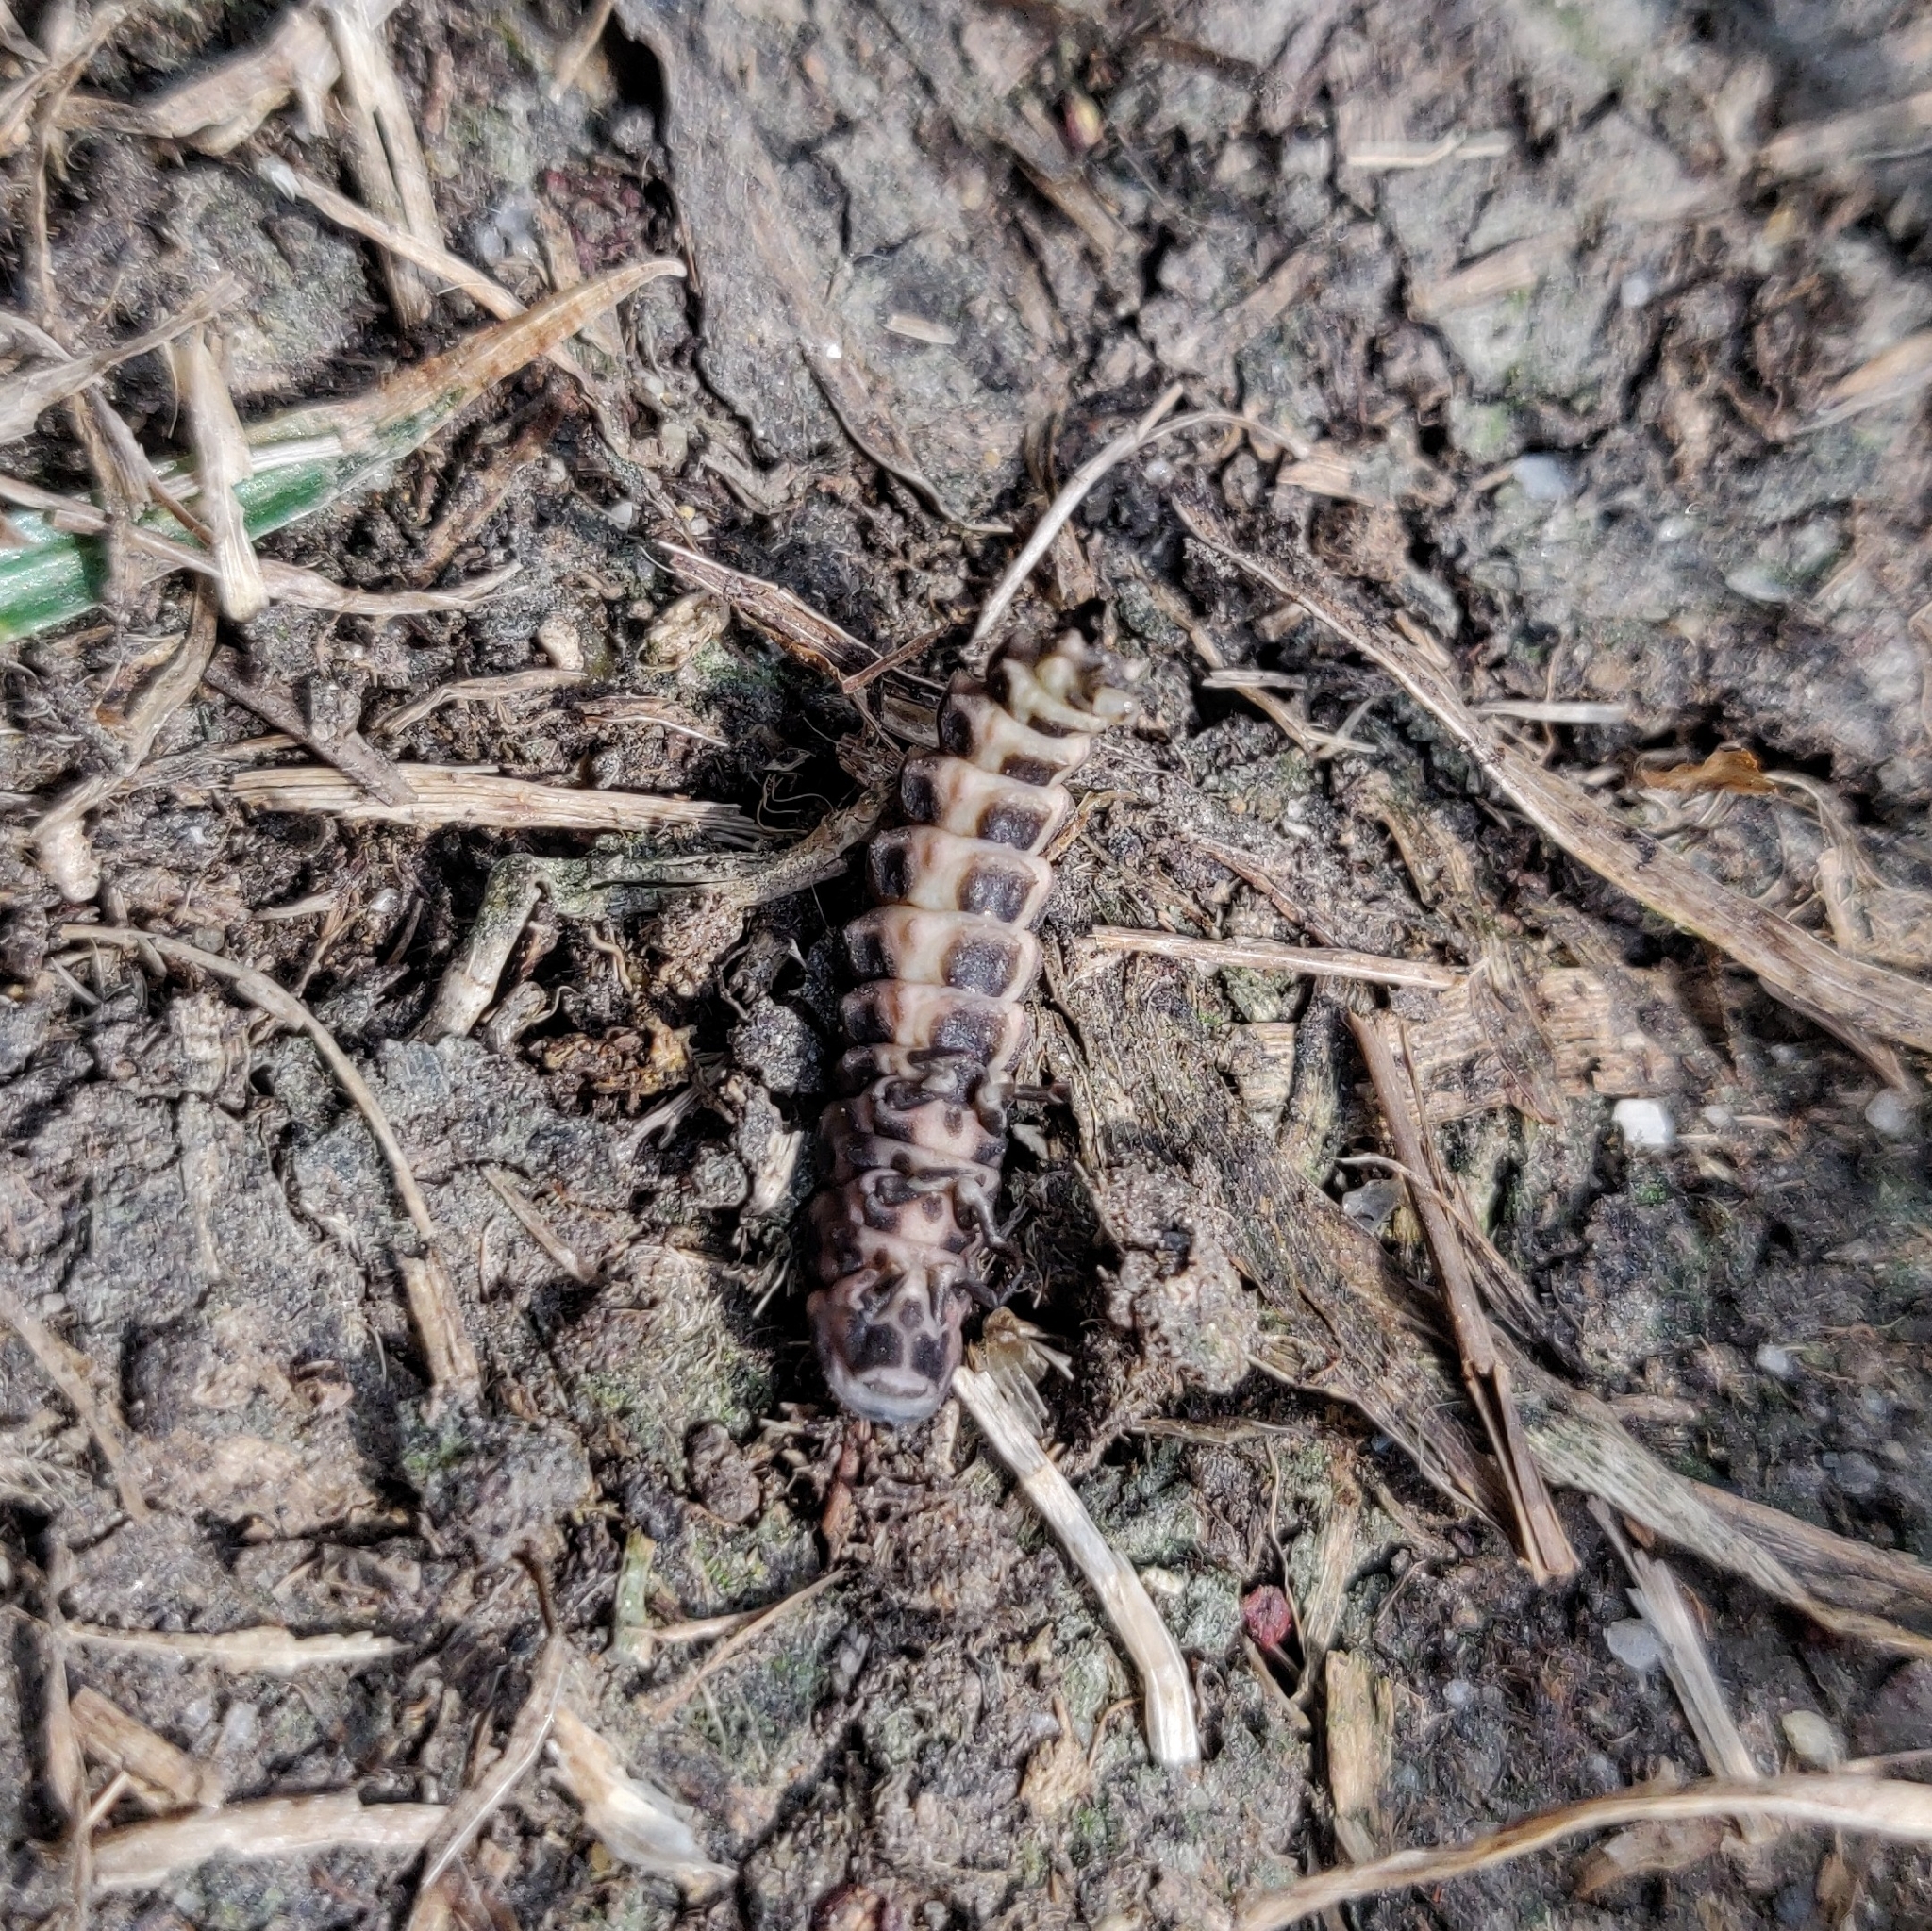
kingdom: Animalia
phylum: Arthropoda
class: Insecta
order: Coleoptera
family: Lampyridae
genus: Lampyris
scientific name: Lampyris noctiluca
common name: Glow-worm
